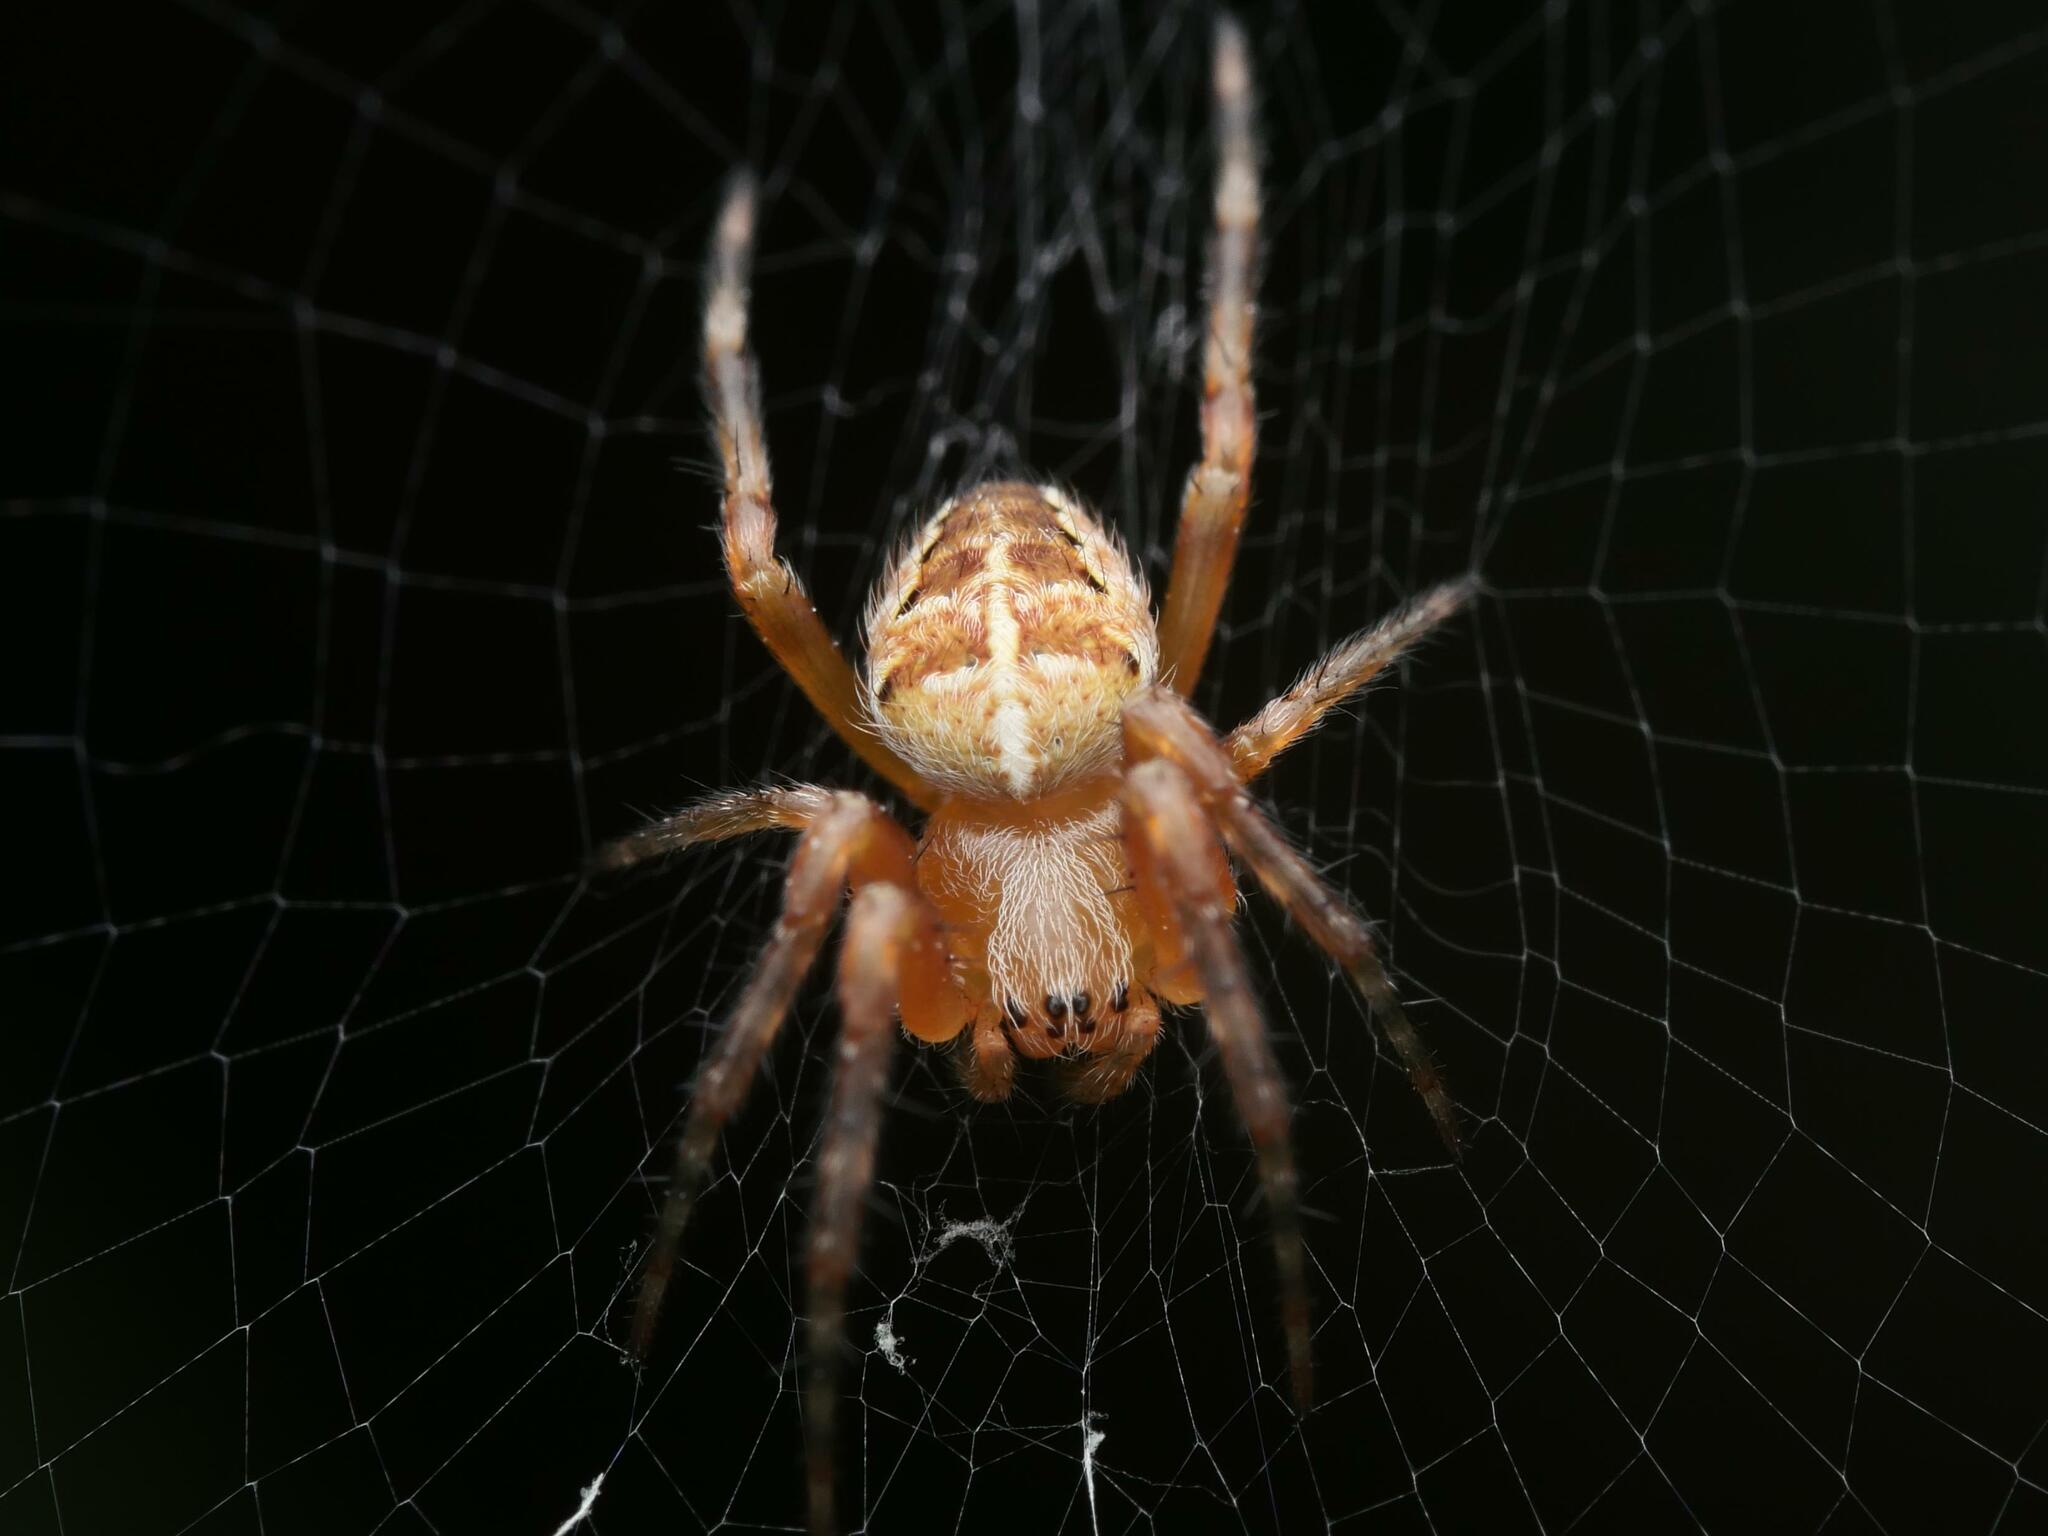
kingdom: Animalia
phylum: Arthropoda
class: Arachnida
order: Araneae
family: Araneidae
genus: Araneus
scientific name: Araneus diadematus
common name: Cross orbweaver
